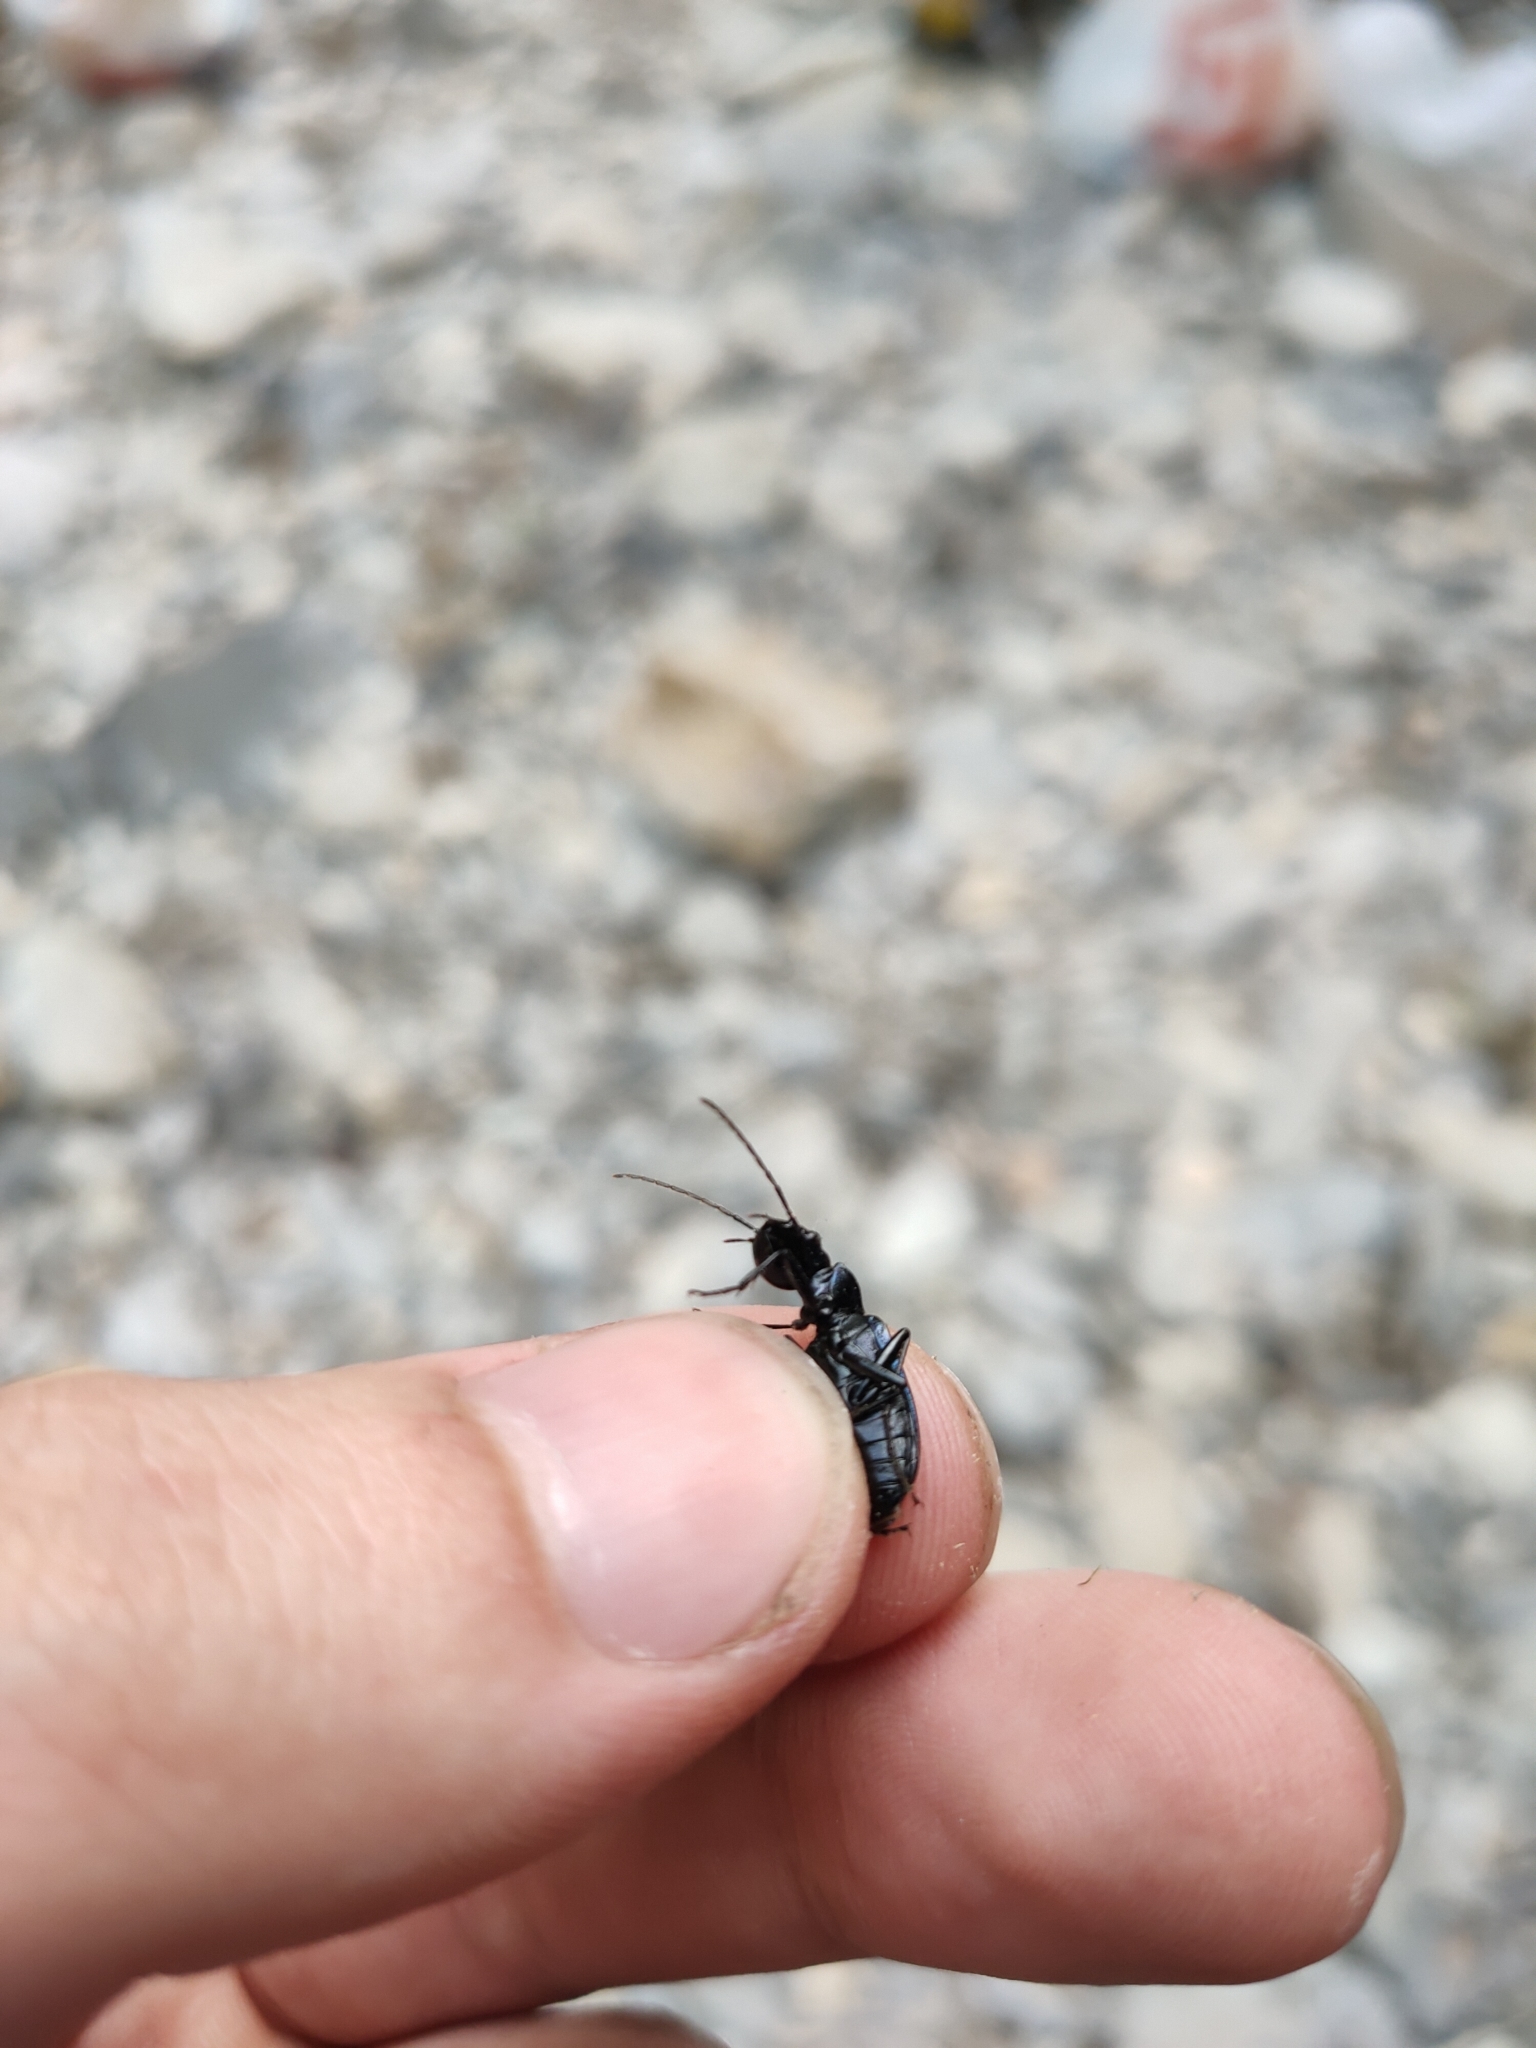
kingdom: Animalia
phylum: Arthropoda
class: Insecta
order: Coleoptera
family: Carabidae
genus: Chlaenius
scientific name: Chlaenius coeruleus
